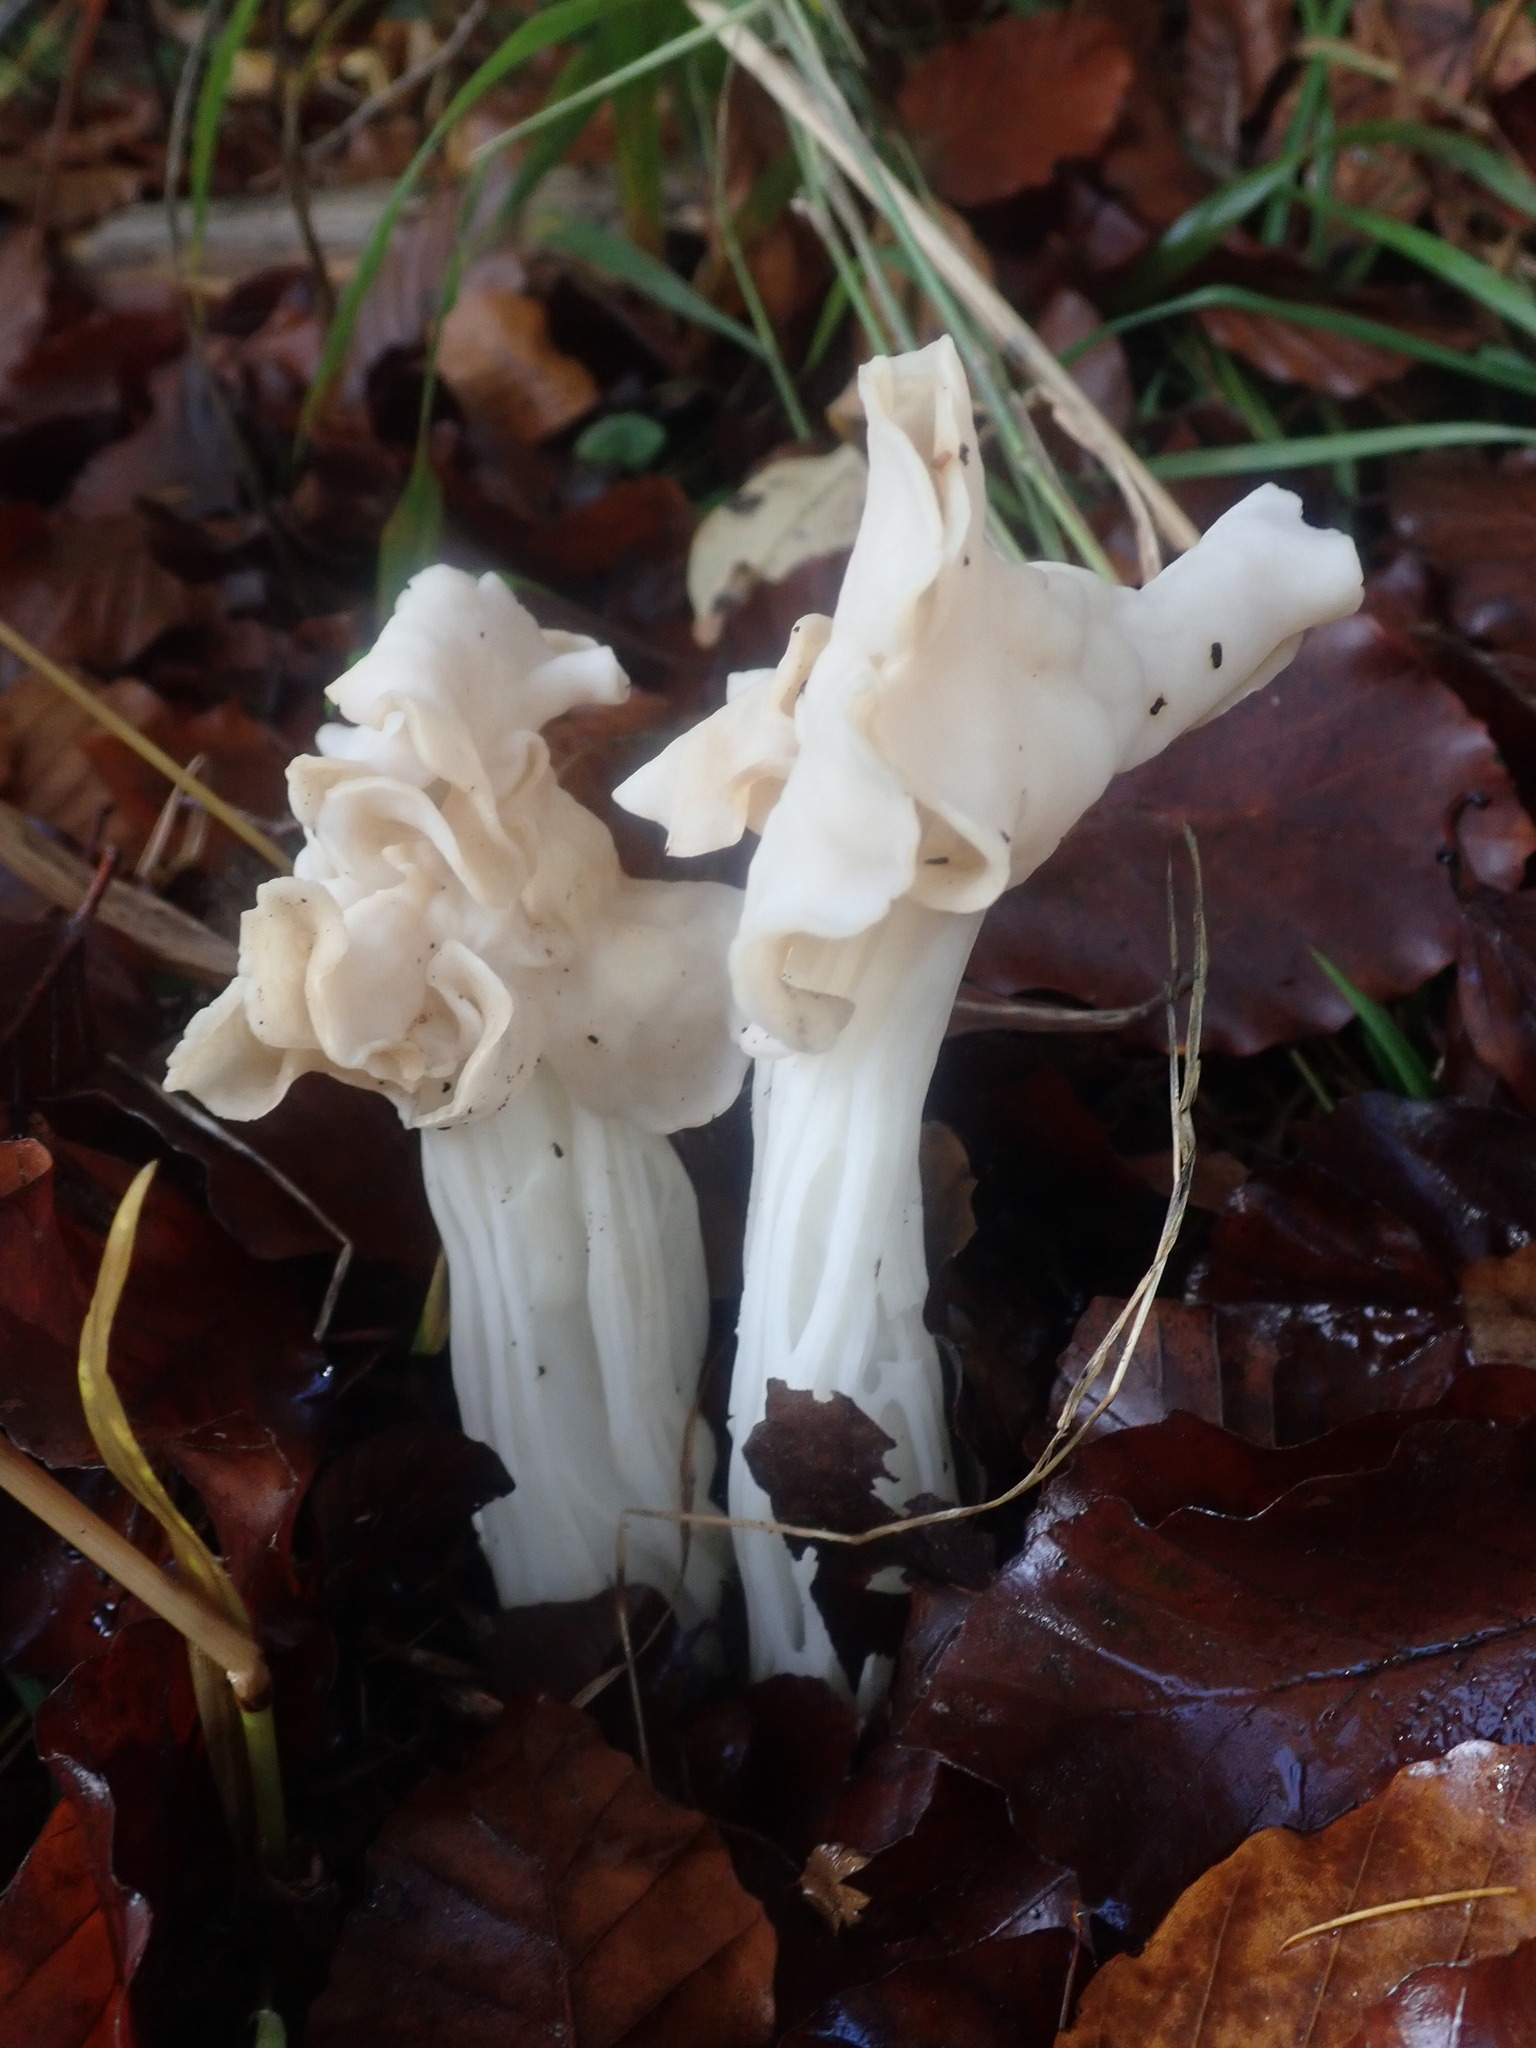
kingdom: Fungi
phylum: Ascomycota
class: Pezizomycetes
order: Pezizales
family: Helvellaceae
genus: Helvella
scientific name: Helvella crispa
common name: White saddle
